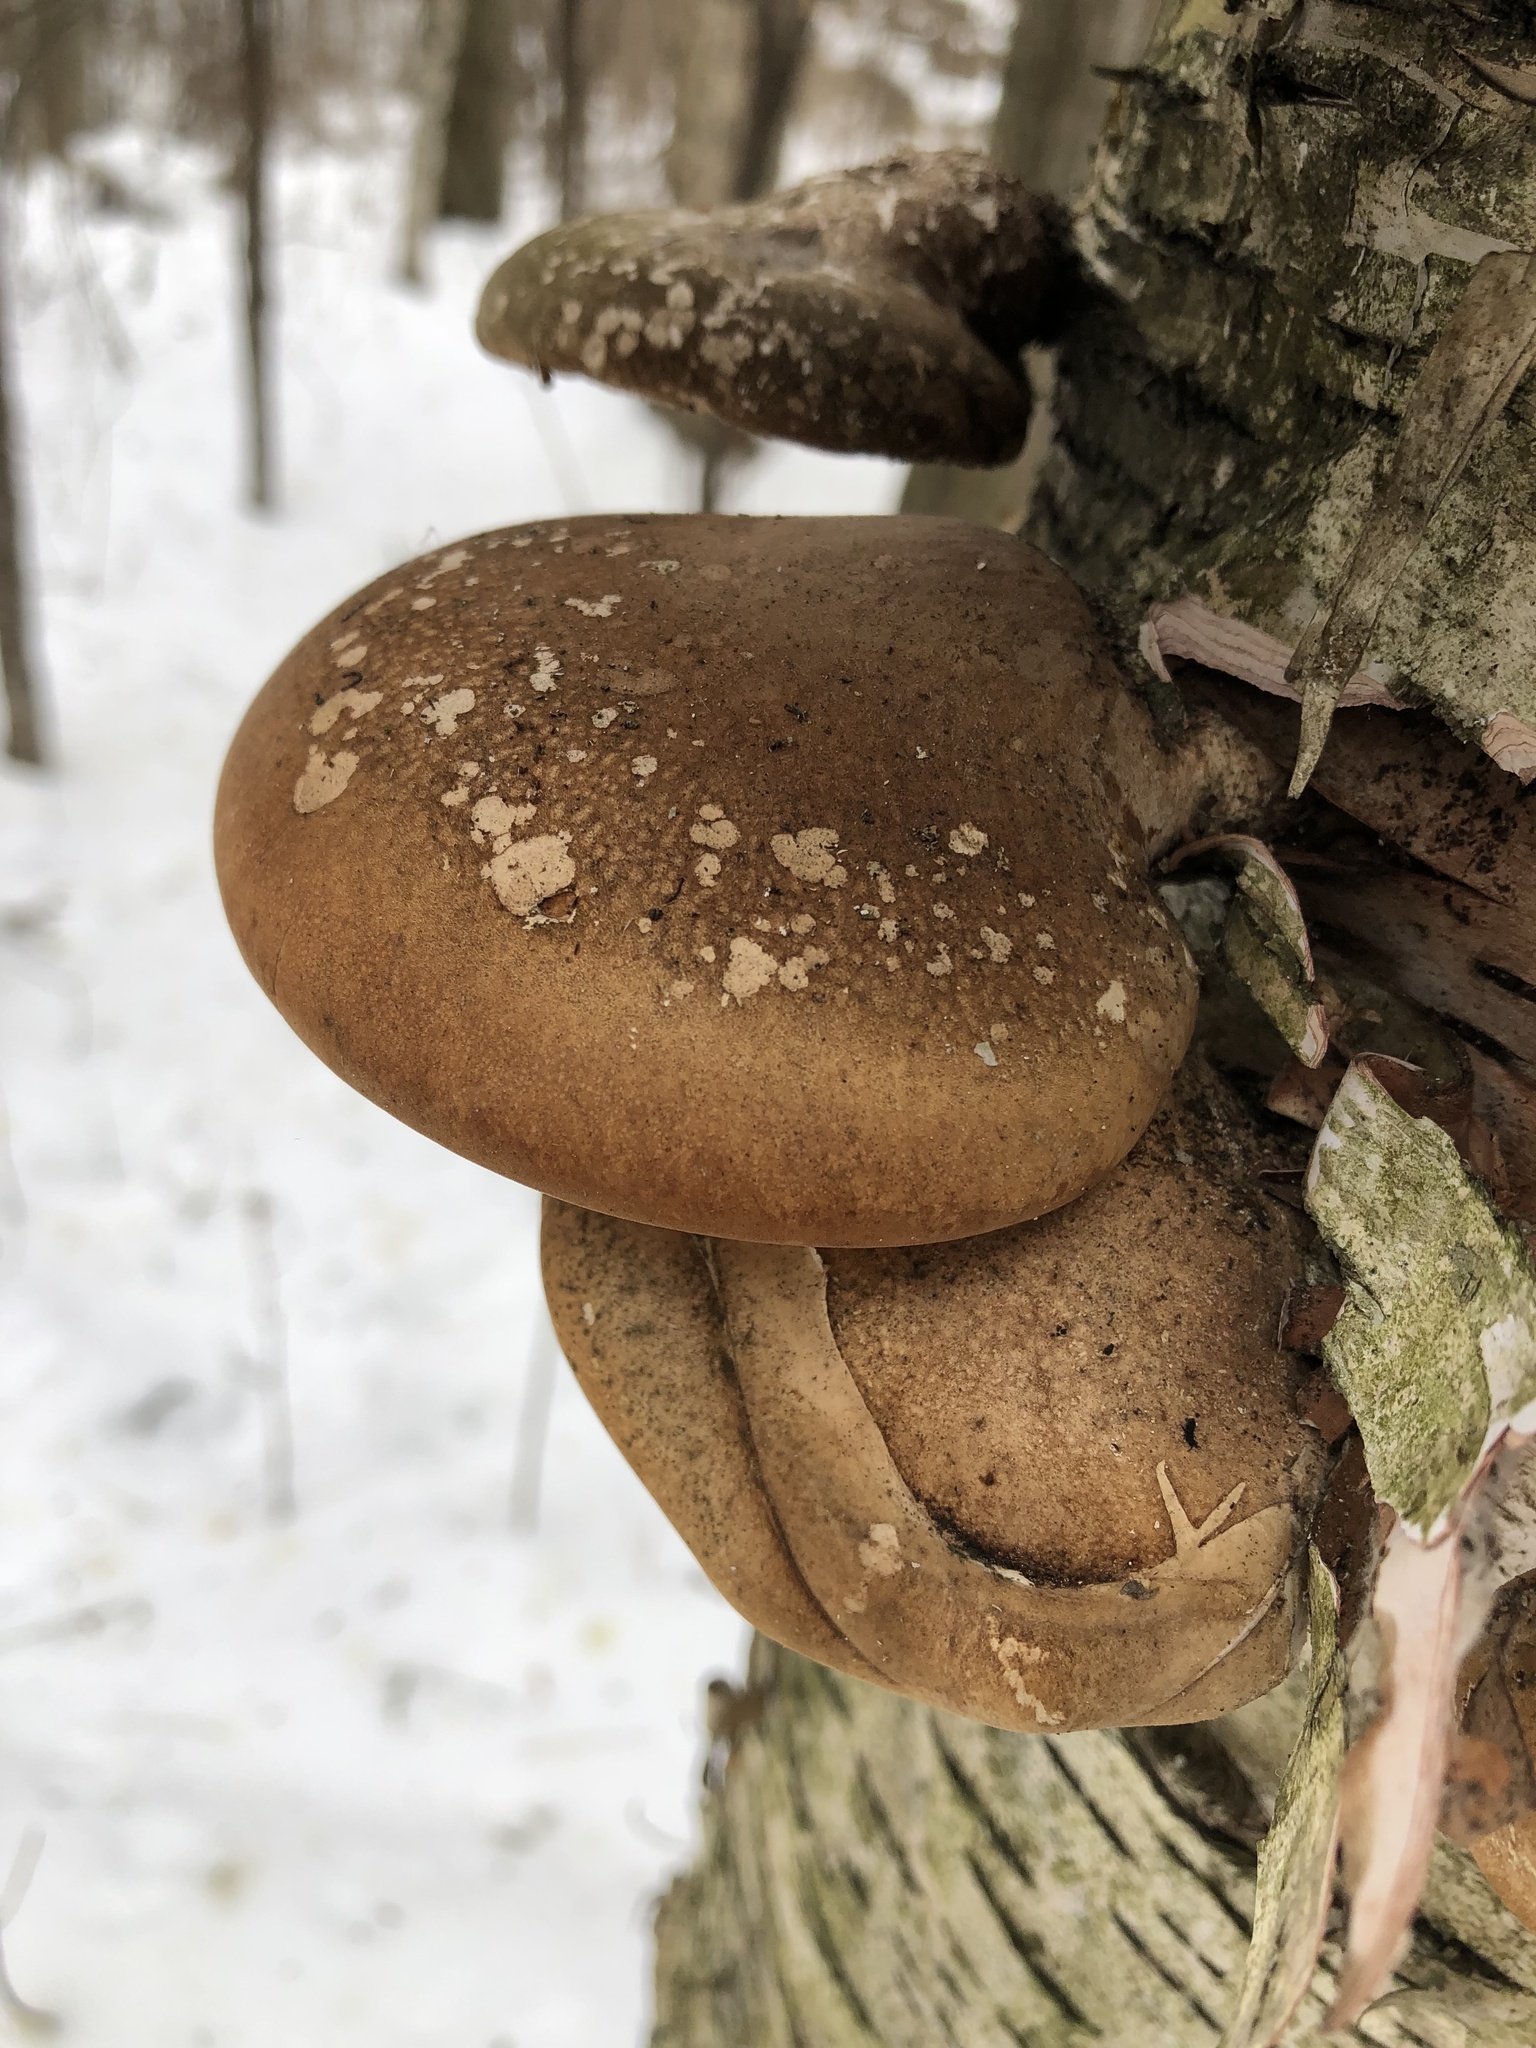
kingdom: Fungi
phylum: Basidiomycota
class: Agaricomycetes
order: Polyporales
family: Fomitopsidaceae
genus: Fomitopsis
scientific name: Fomitopsis betulina
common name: Birch polypore
